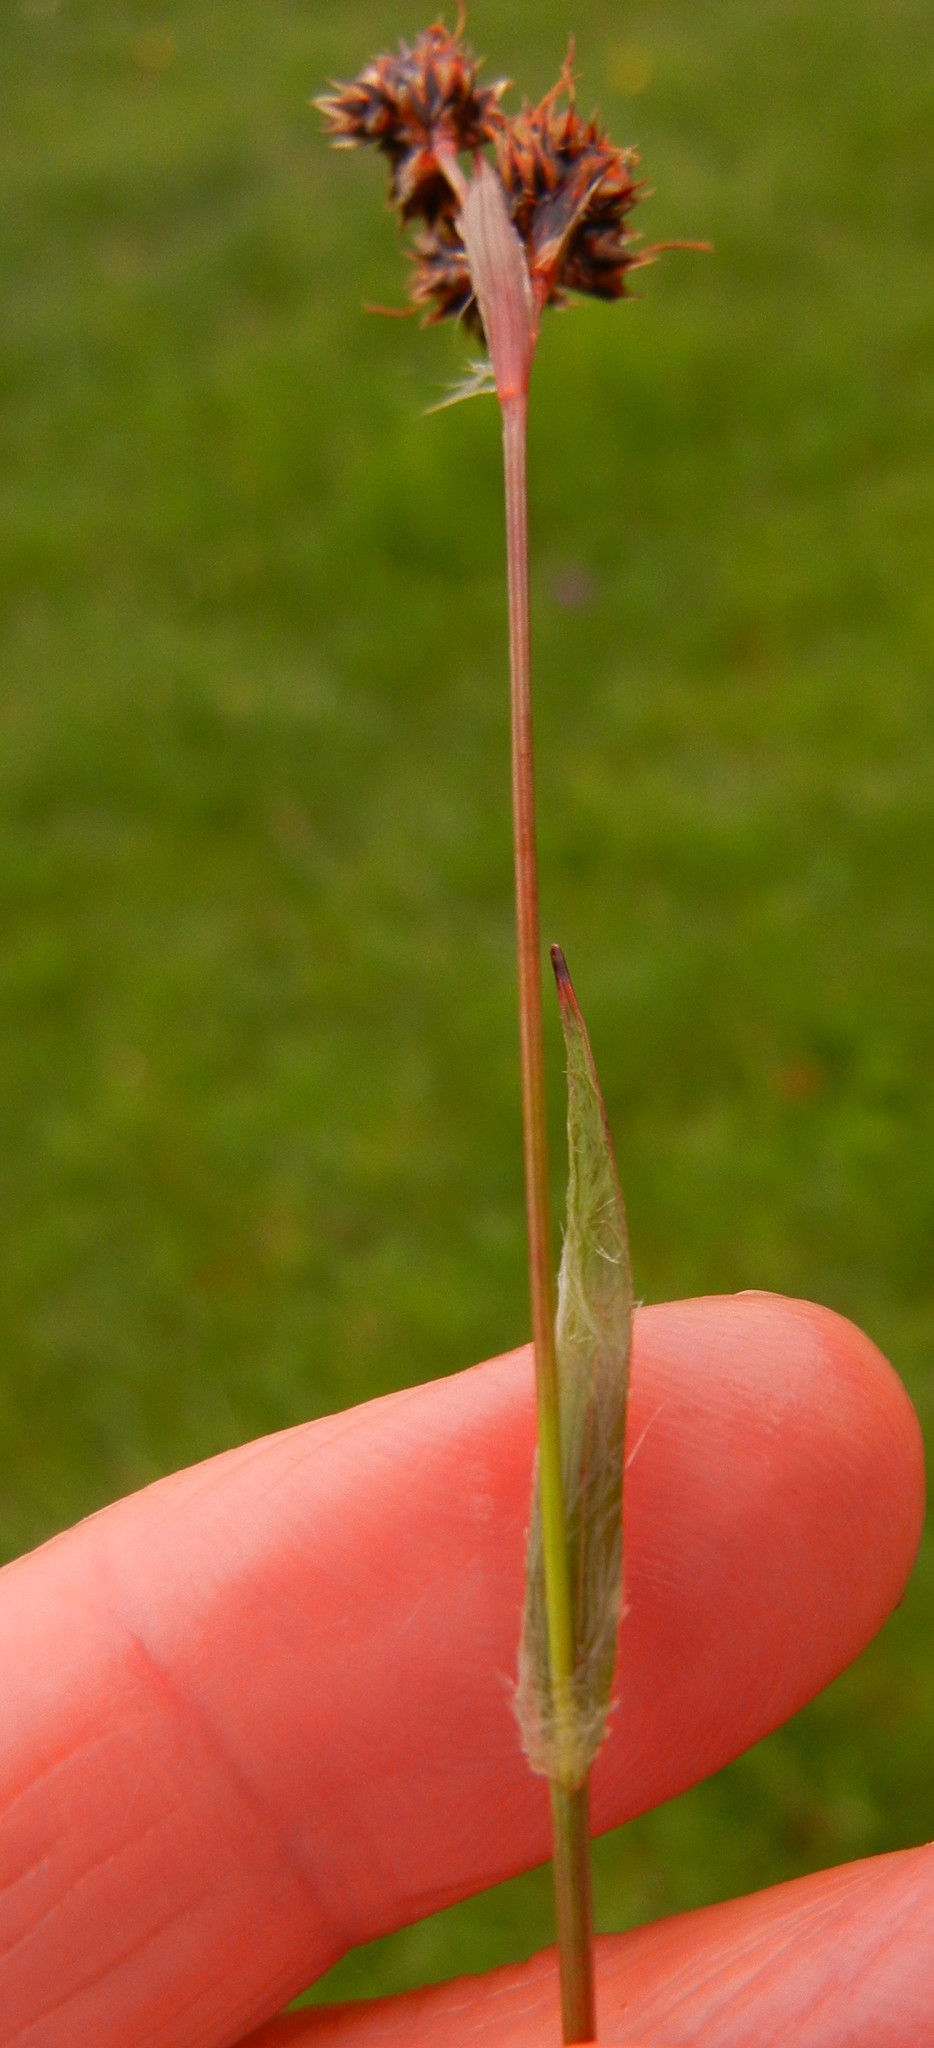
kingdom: Plantae
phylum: Tracheophyta
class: Liliopsida
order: Poales
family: Juncaceae
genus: Luzula
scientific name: Luzula campestris
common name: Field wood-rush
